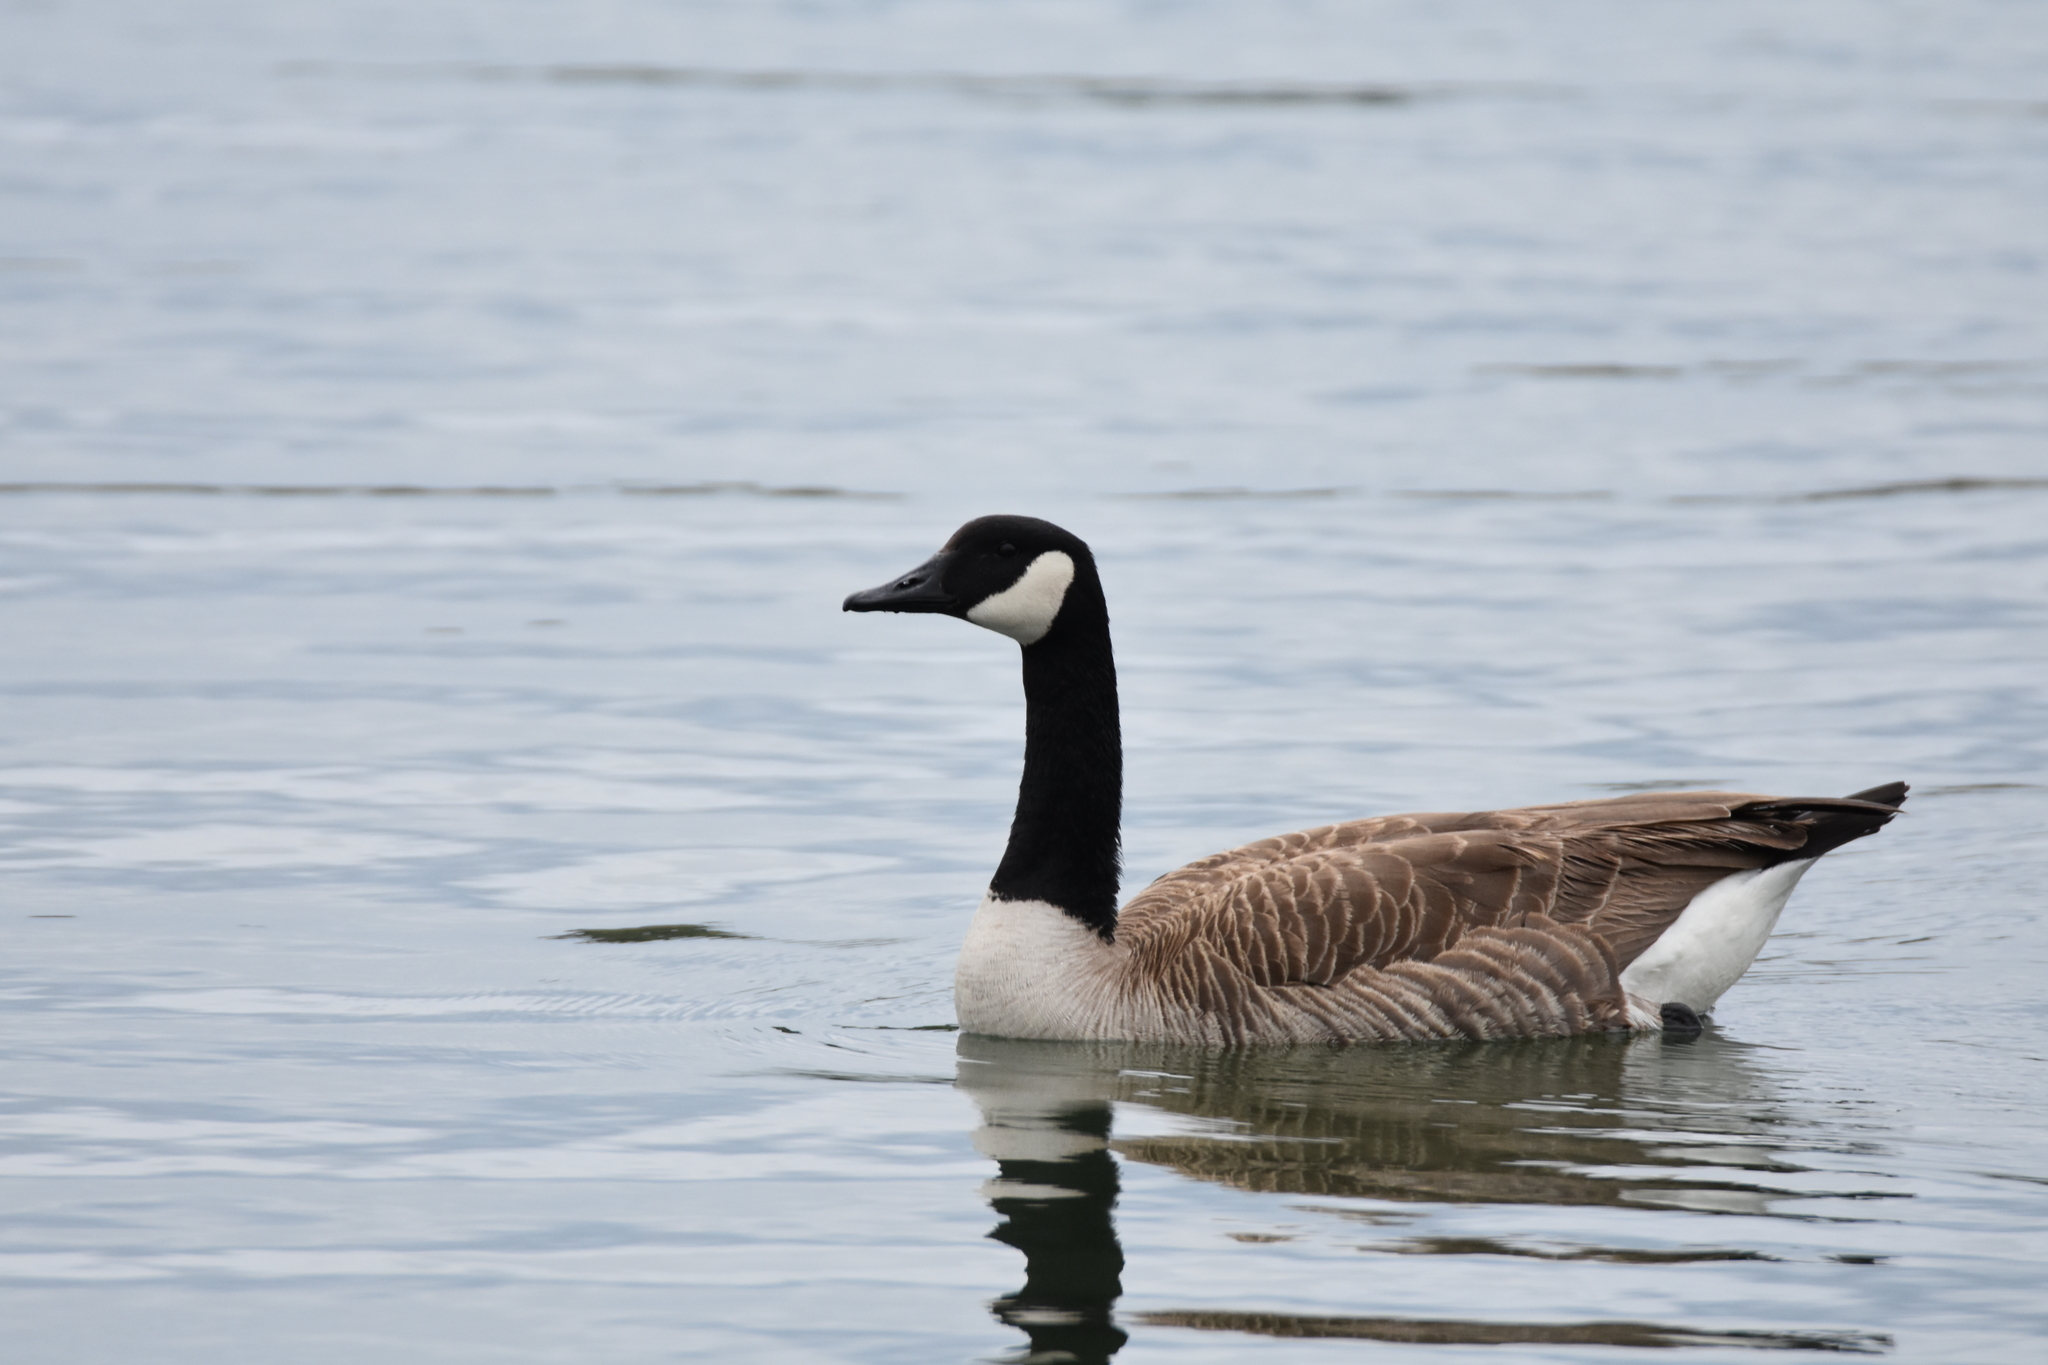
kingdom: Animalia
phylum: Chordata
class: Aves
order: Anseriformes
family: Anatidae
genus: Branta
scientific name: Branta canadensis
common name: Canada goose
